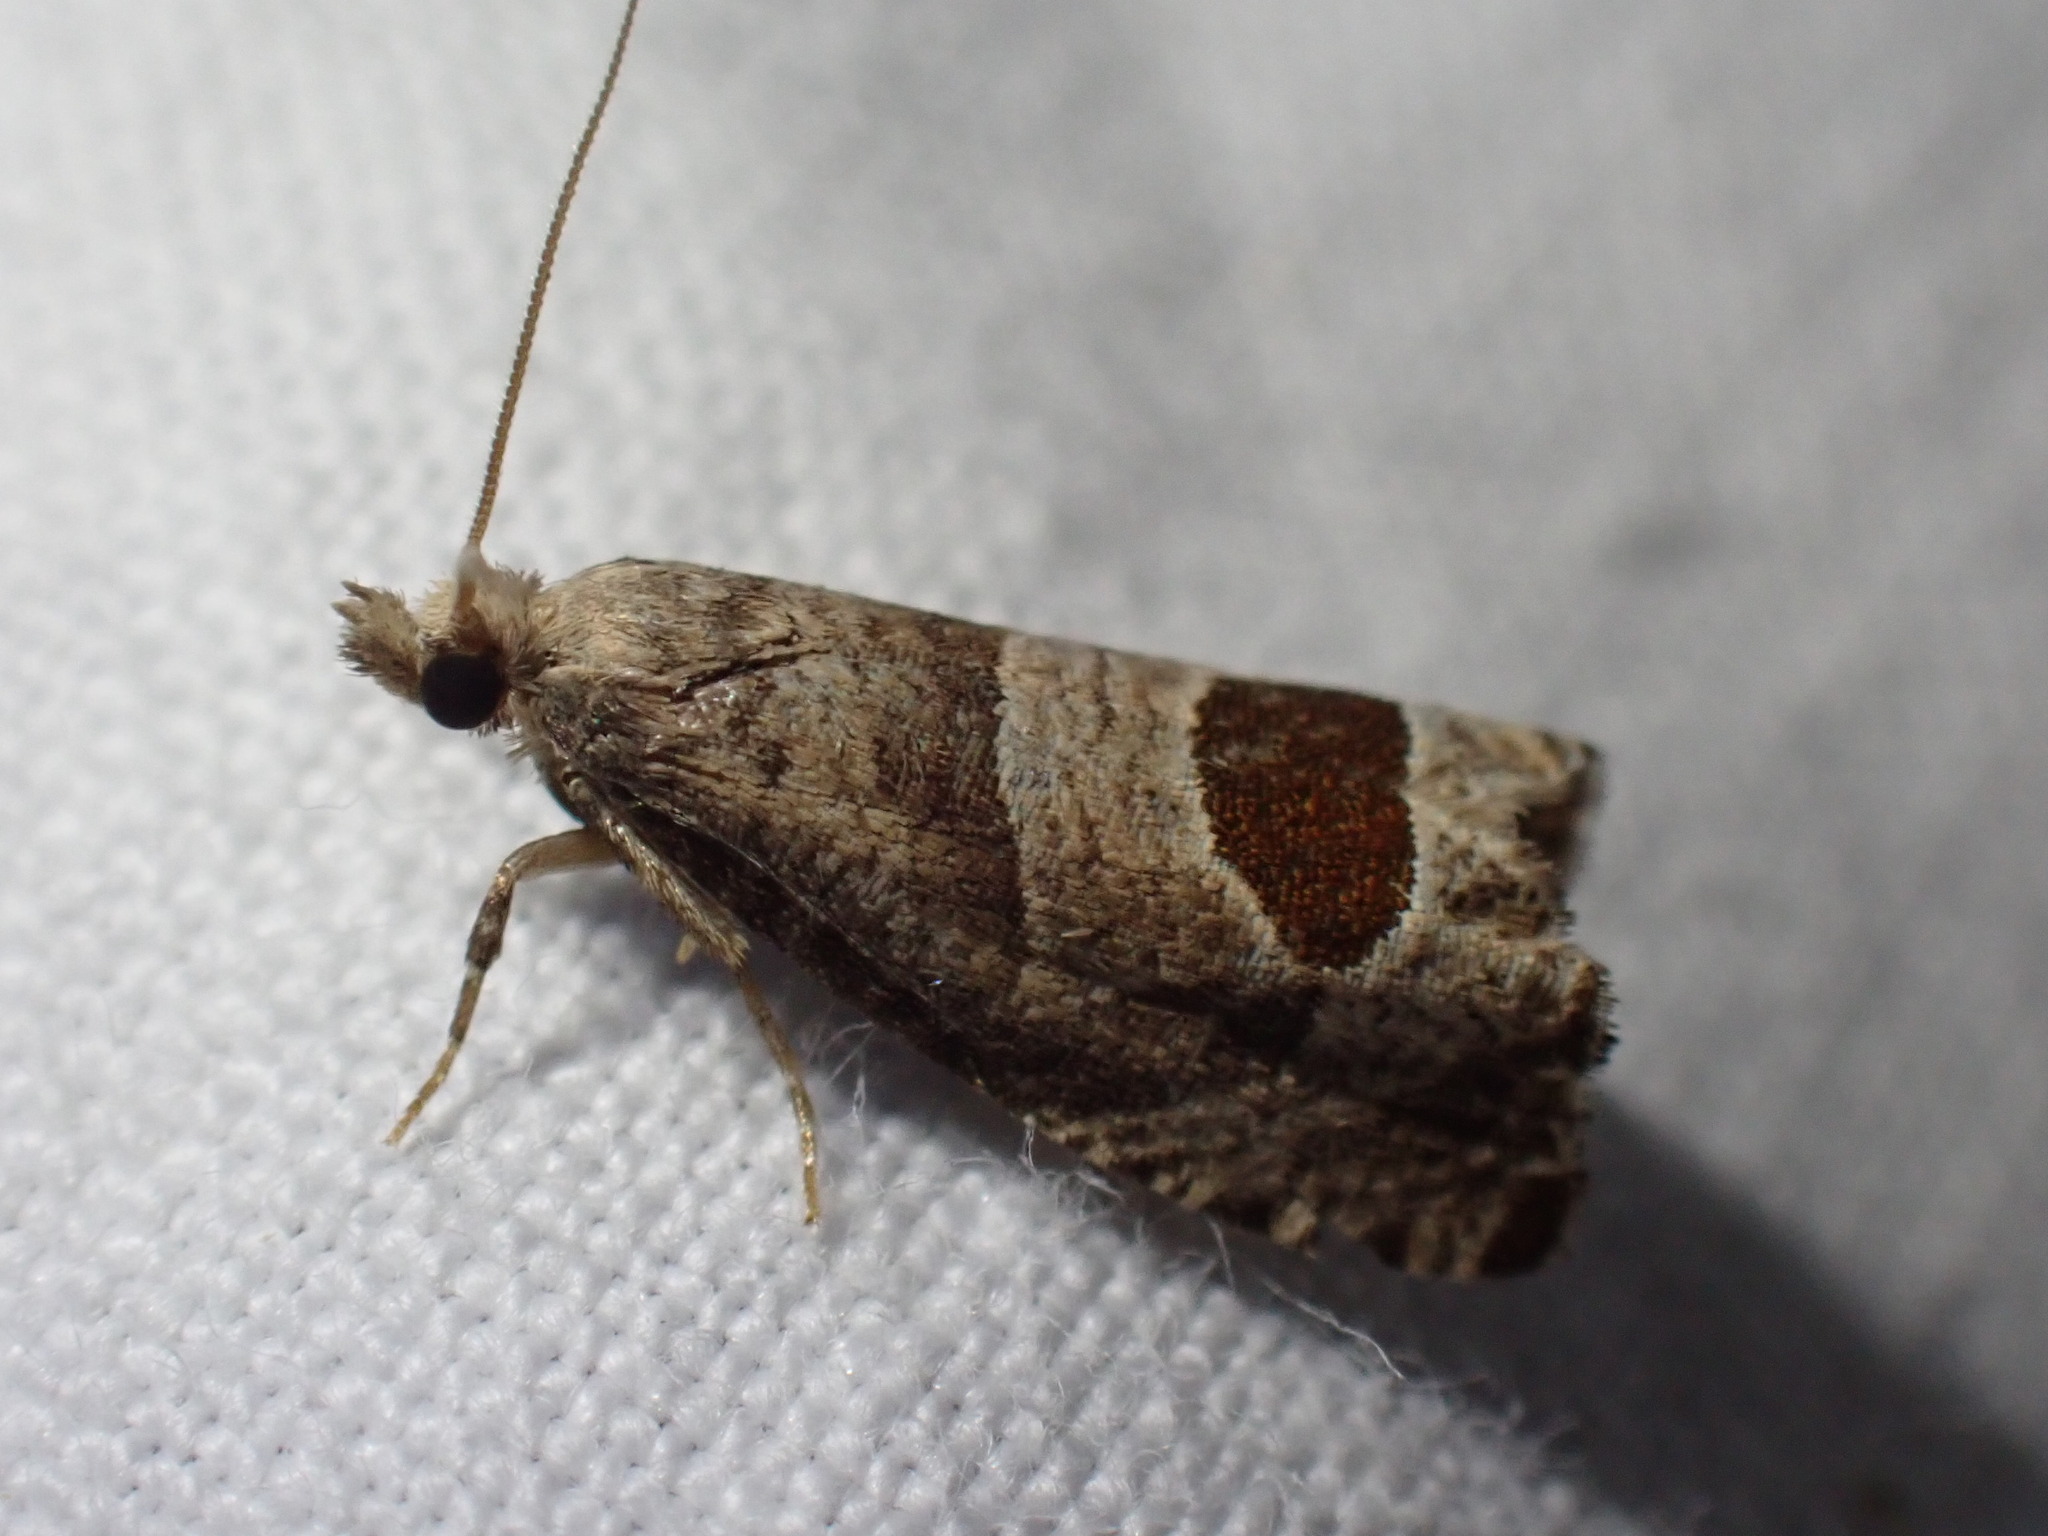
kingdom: Animalia
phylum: Arthropoda
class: Insecta
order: Lepidoptera
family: Tortricidae
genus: Notocelia
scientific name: Notocelia uddmanniana
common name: Bramble shoot moth
